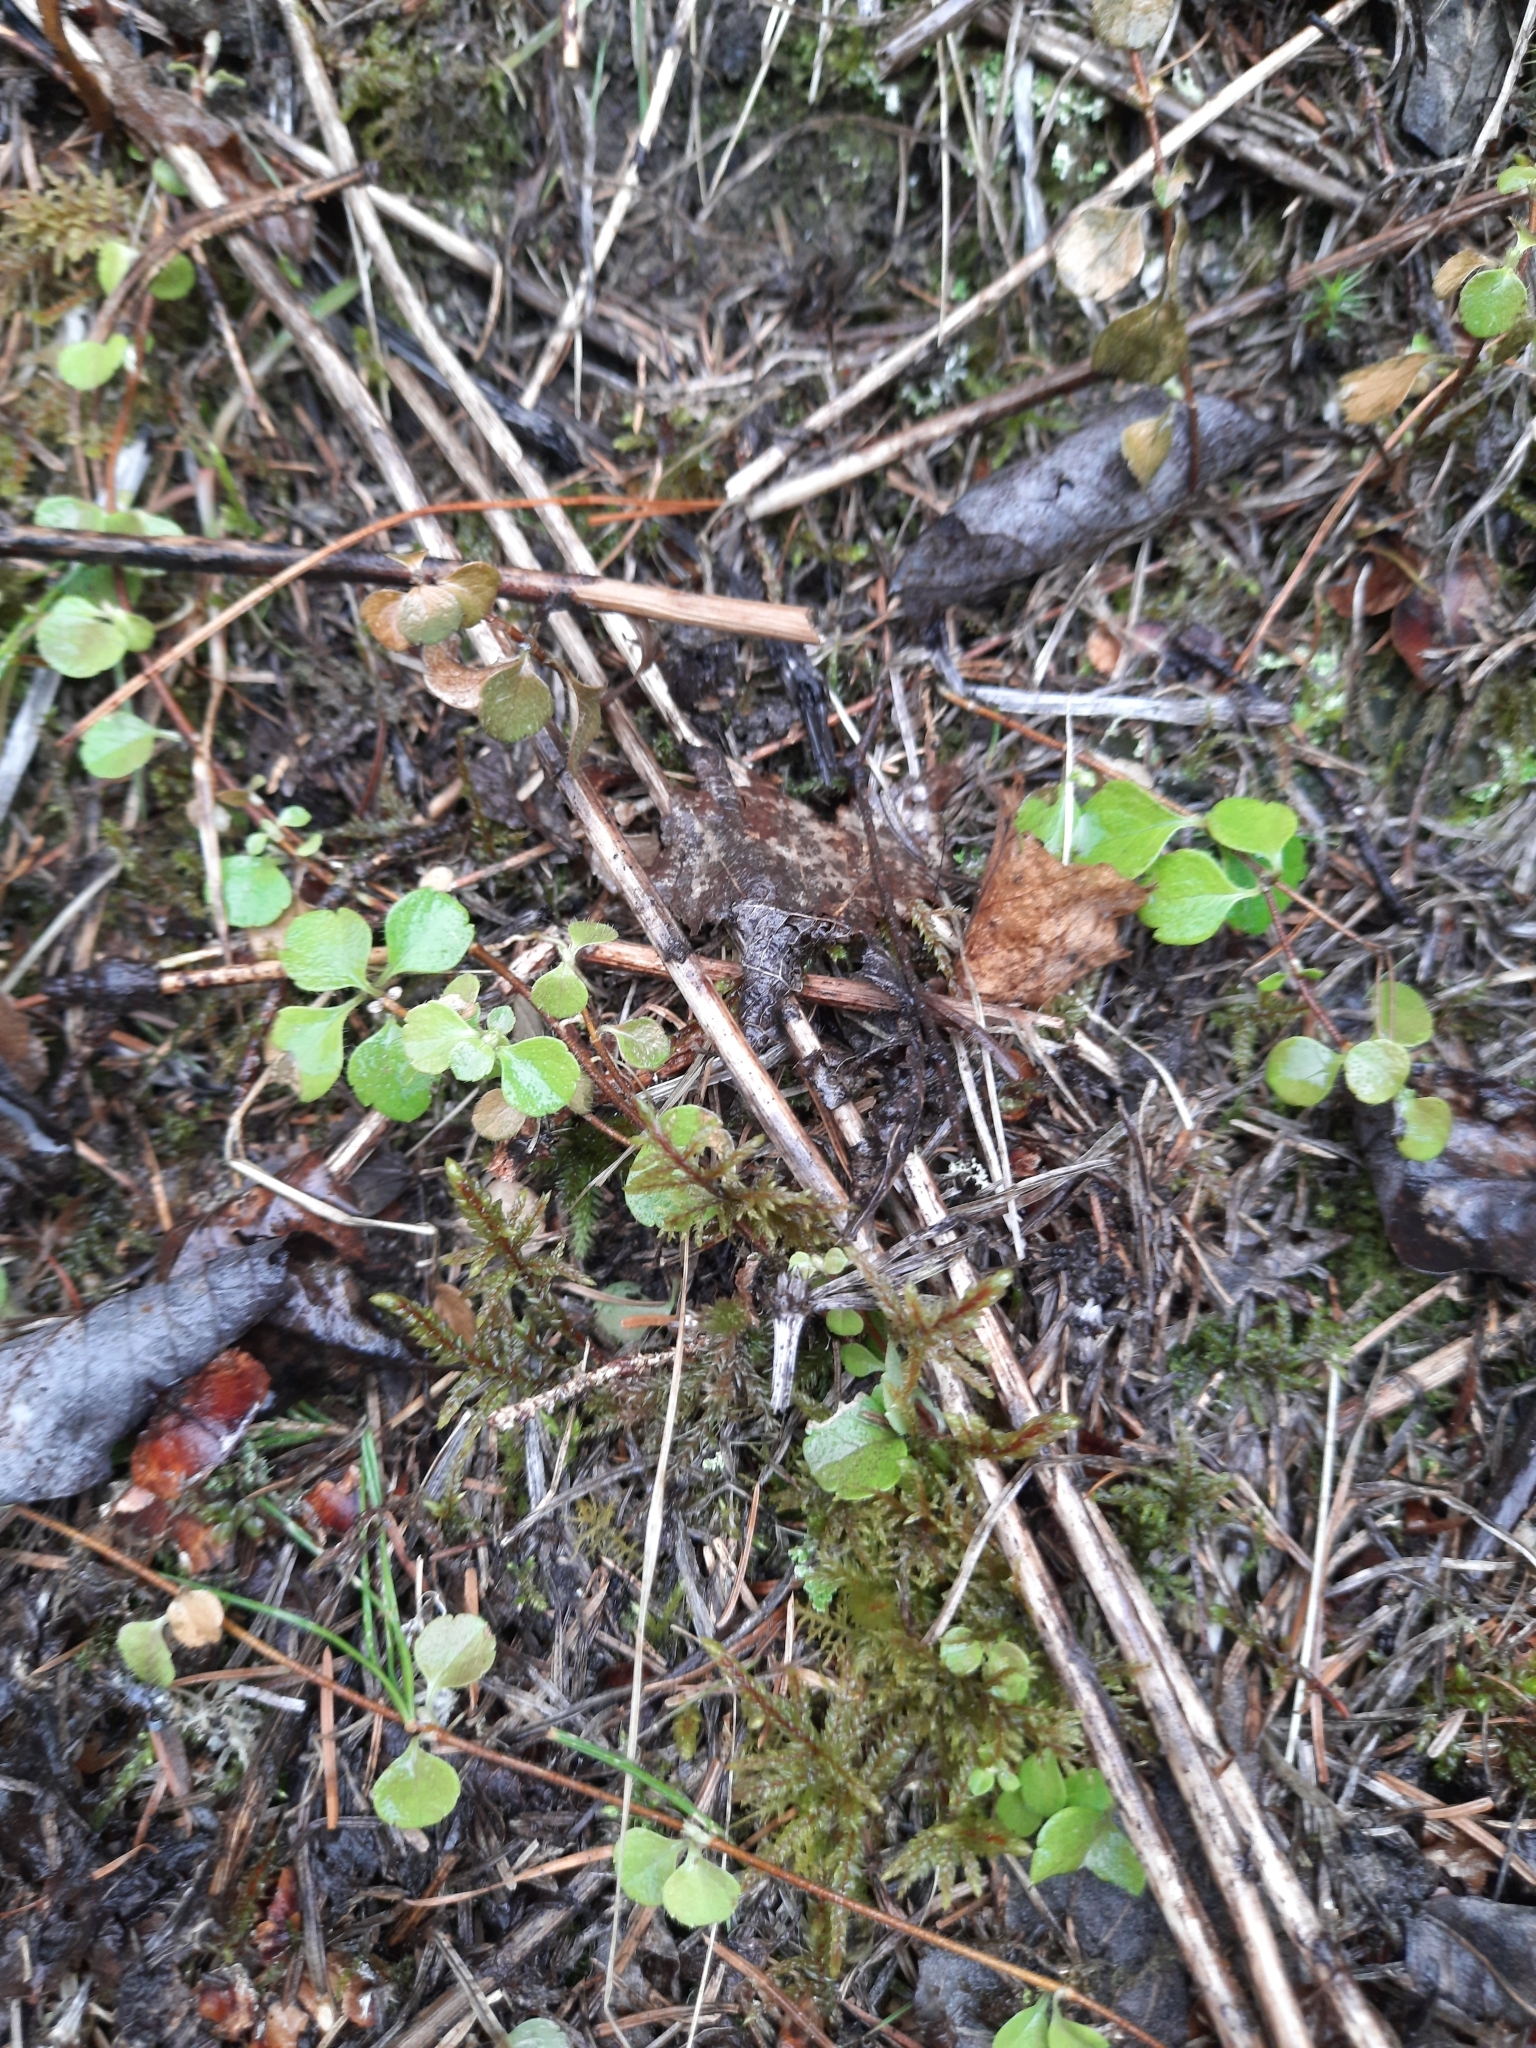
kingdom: Plantae
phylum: Tracheophyta
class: Magnoliopsida
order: Dipsacales
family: Caprifoliaceae
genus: Linnaea
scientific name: Linnaea borealis
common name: Twinflower
